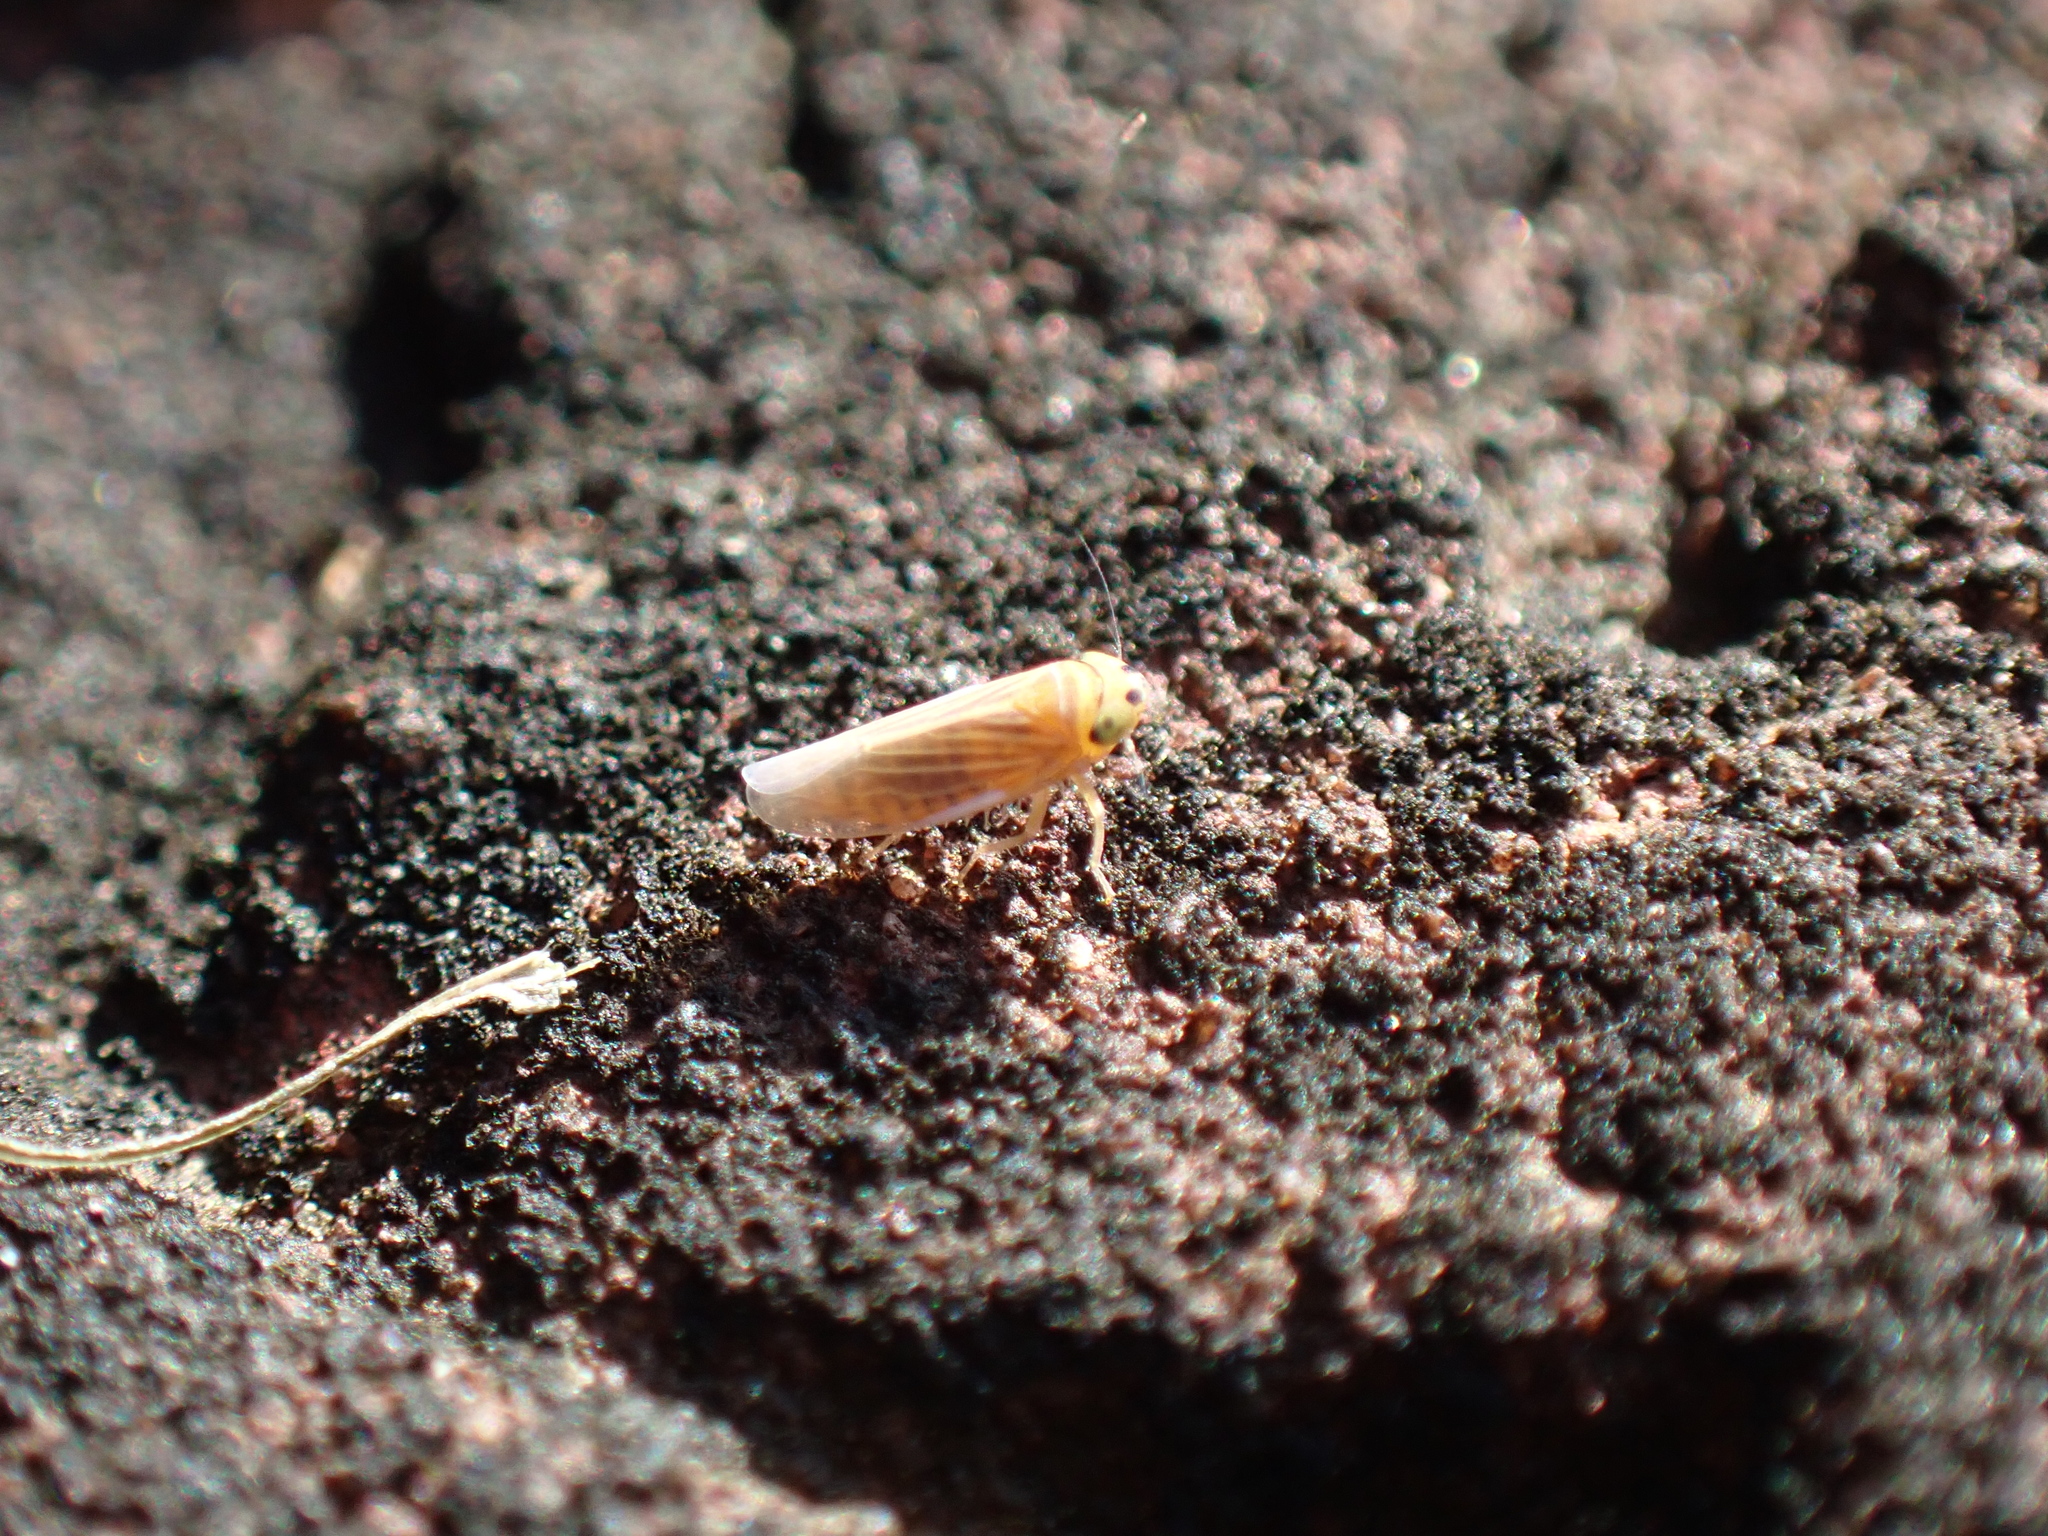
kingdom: Animalia
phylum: Arthropoda
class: Insecta
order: Hemiptera
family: Cicadellidae
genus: Graminella
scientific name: Graminella villicus
